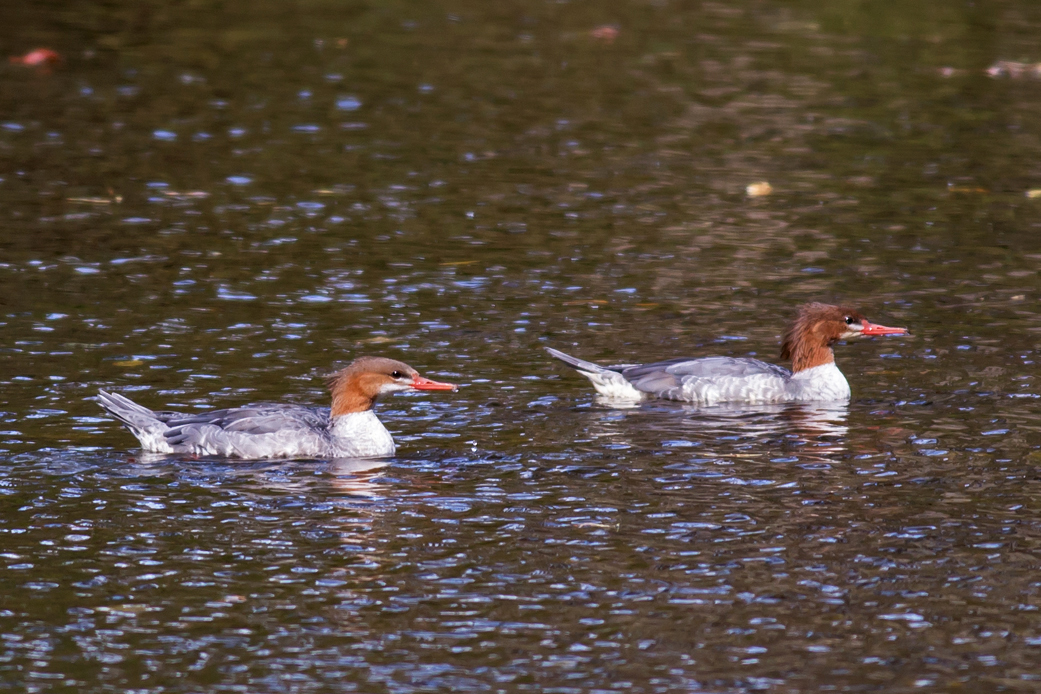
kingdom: Animalia
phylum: Chordata
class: Aves
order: Anseriformes
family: Anatidae
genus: Mergus
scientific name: Mergus merganser
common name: Common merganser
